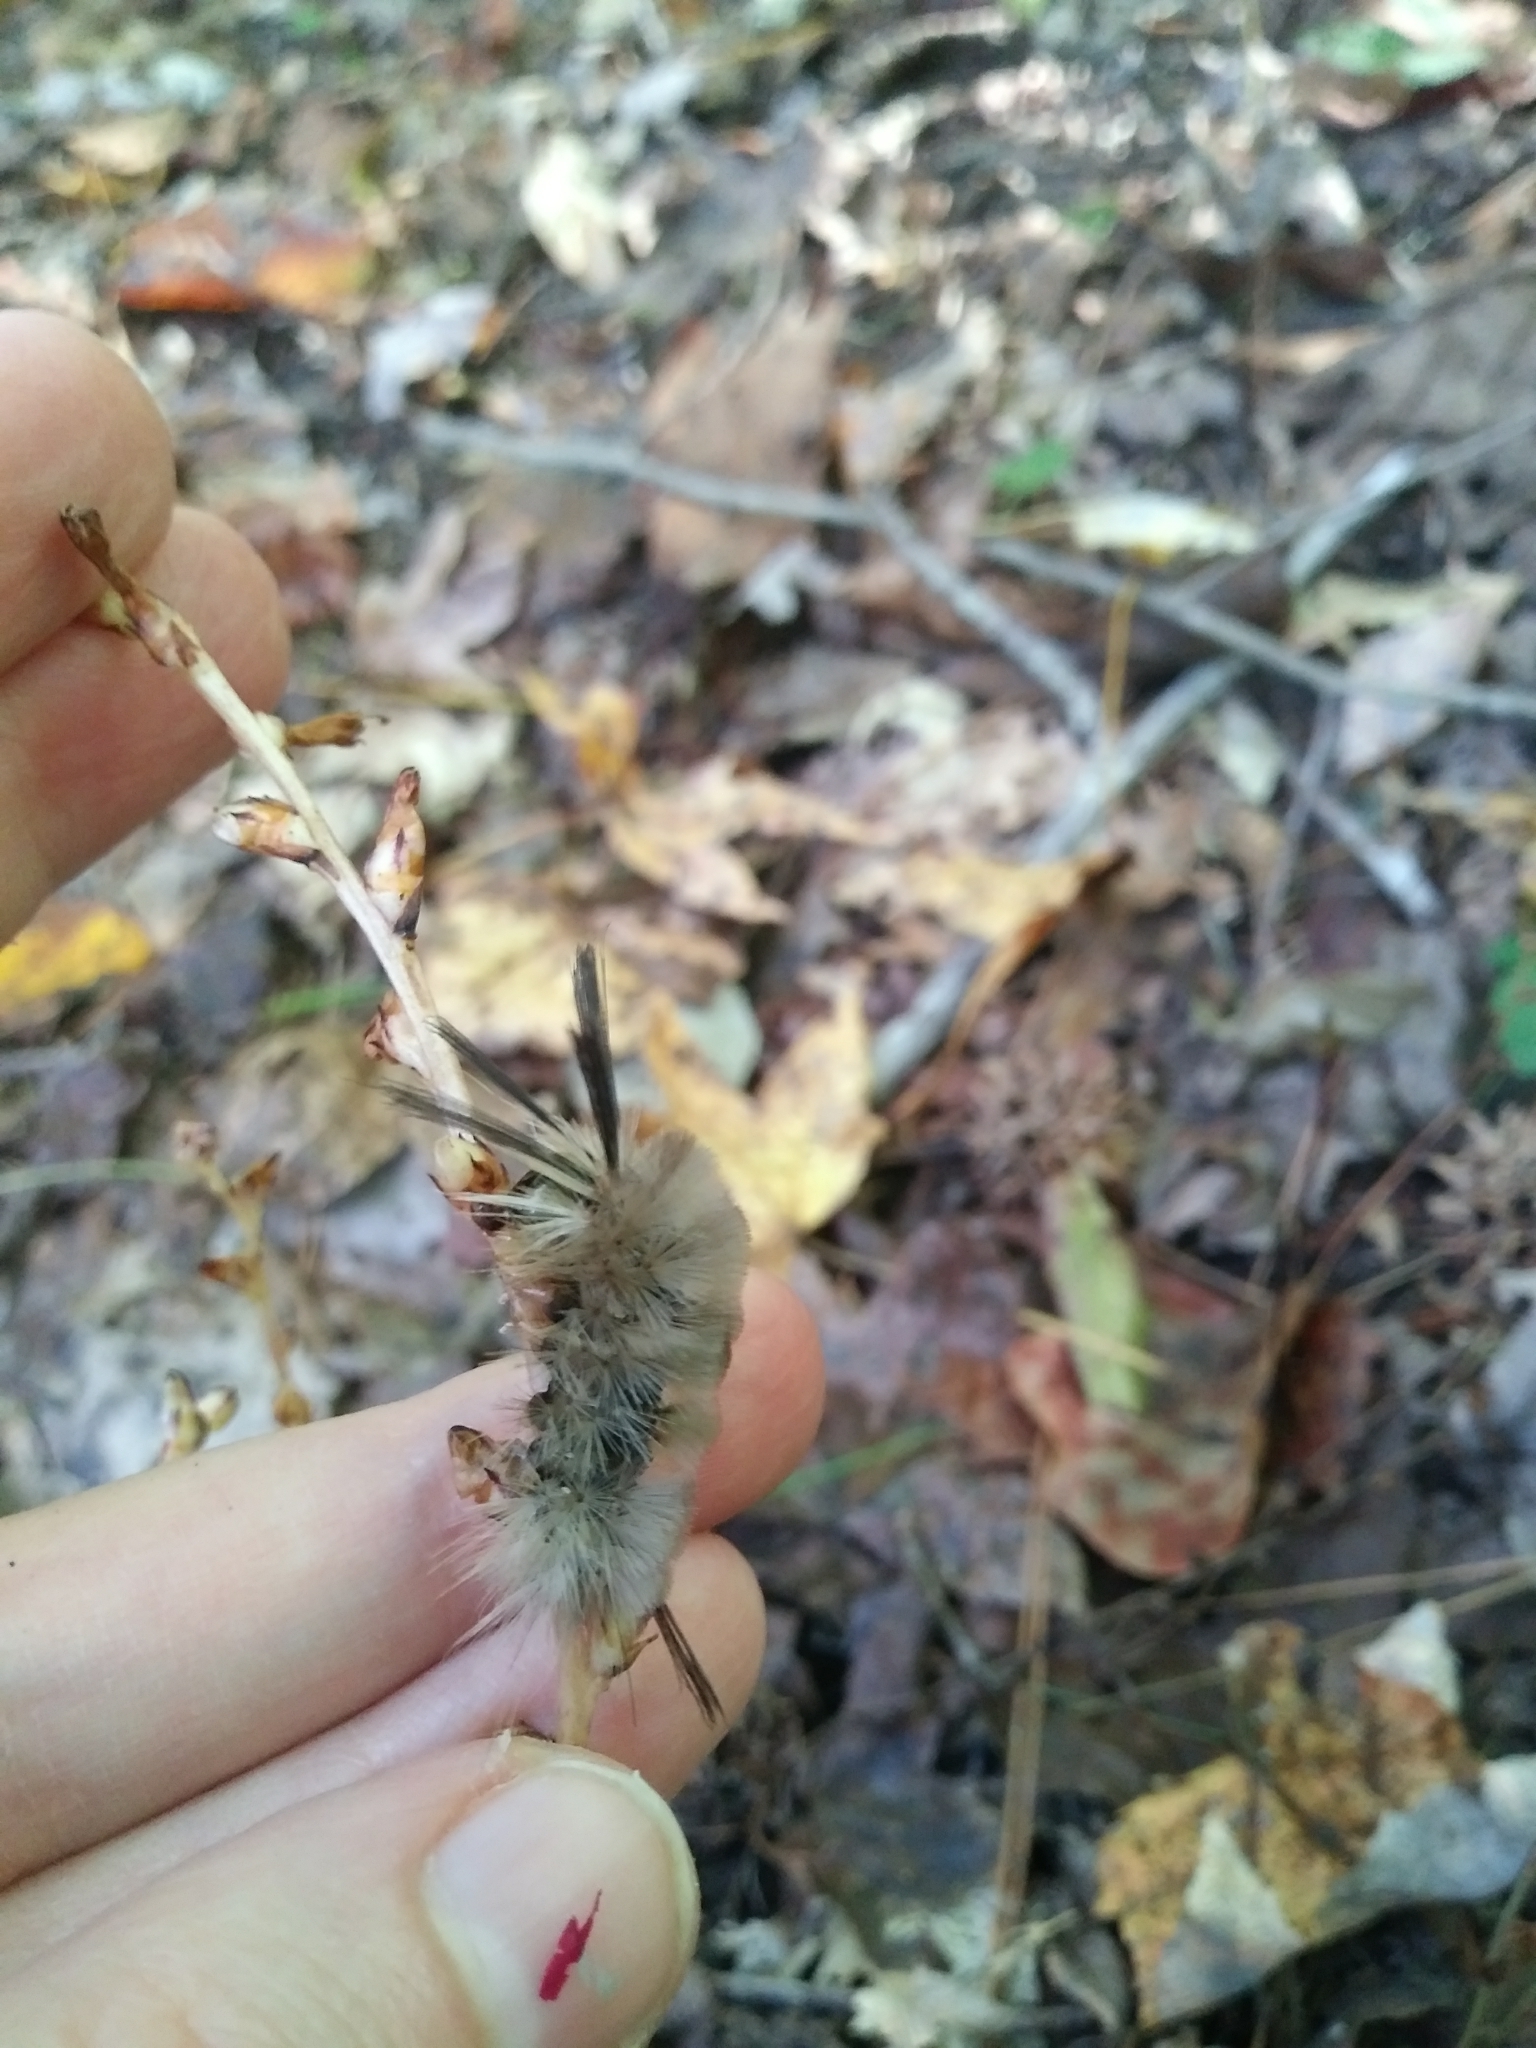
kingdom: Animalia
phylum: Arthropoda
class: Insecta
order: Lepidoptera
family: Erebidae
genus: Halysidota
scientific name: Halysidota tessellaris
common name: Banded tussock moth
